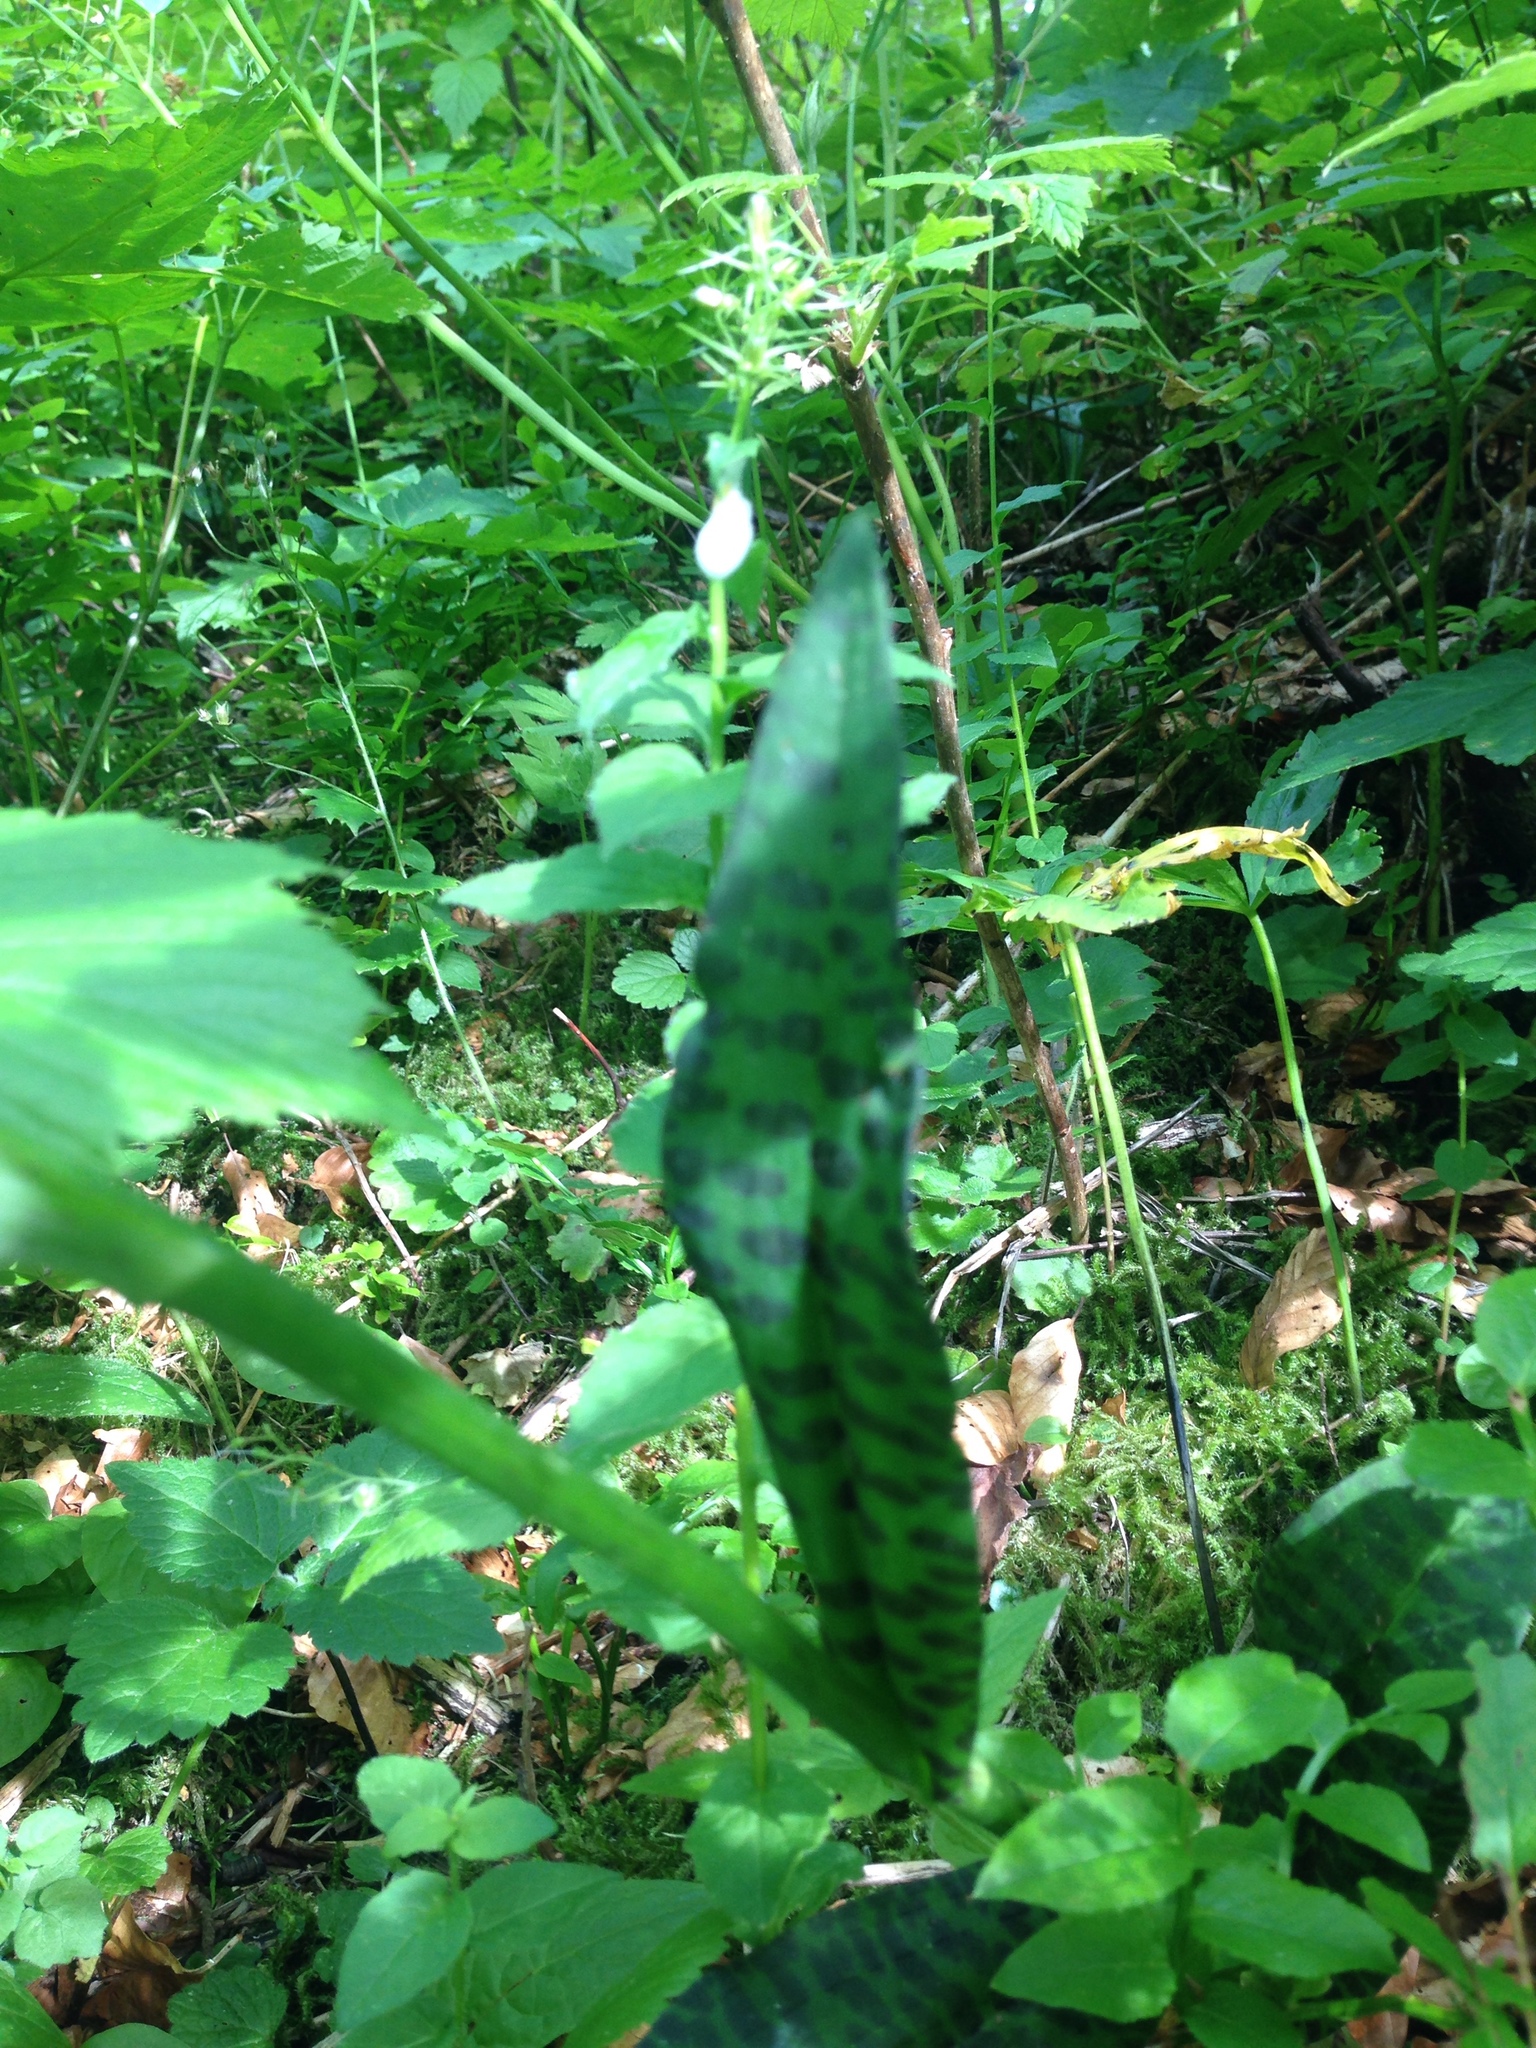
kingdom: Plantae
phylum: Tracheophyta
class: Liliopsida
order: Asparagales
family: Orchidaceae
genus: Dactylorhiza
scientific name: Dactylorhiza maculata
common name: Heath spotted-orchid
